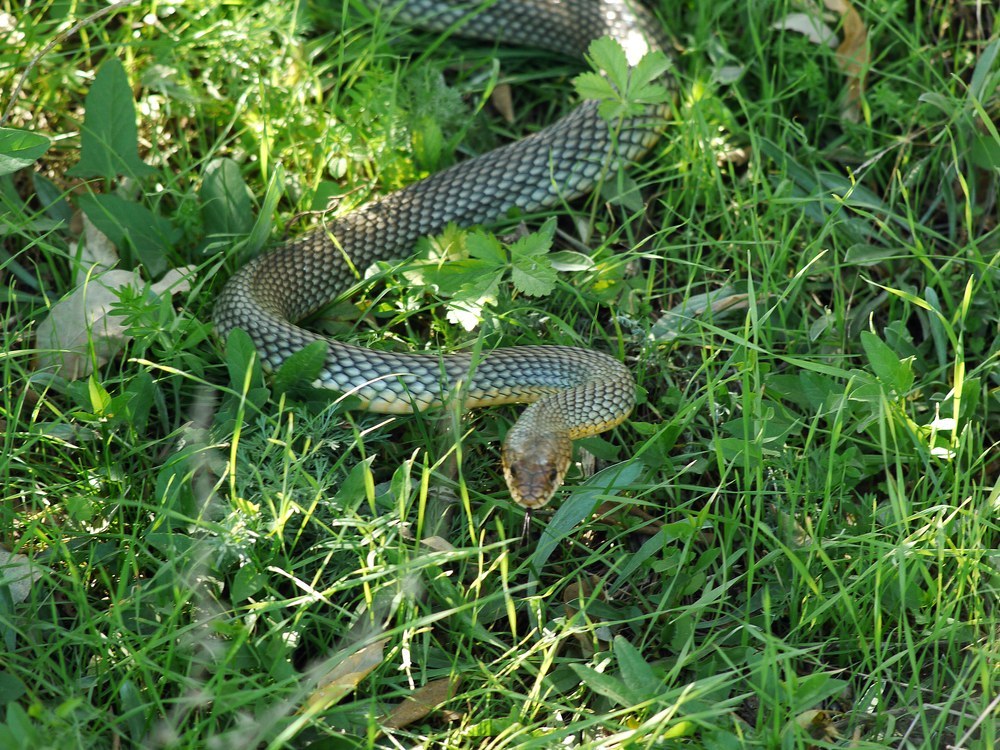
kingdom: Animalia
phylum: Chordata
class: Squamata
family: Colubridae
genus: Dolichophis
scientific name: Dolichophis caspius
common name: Large whip snake
